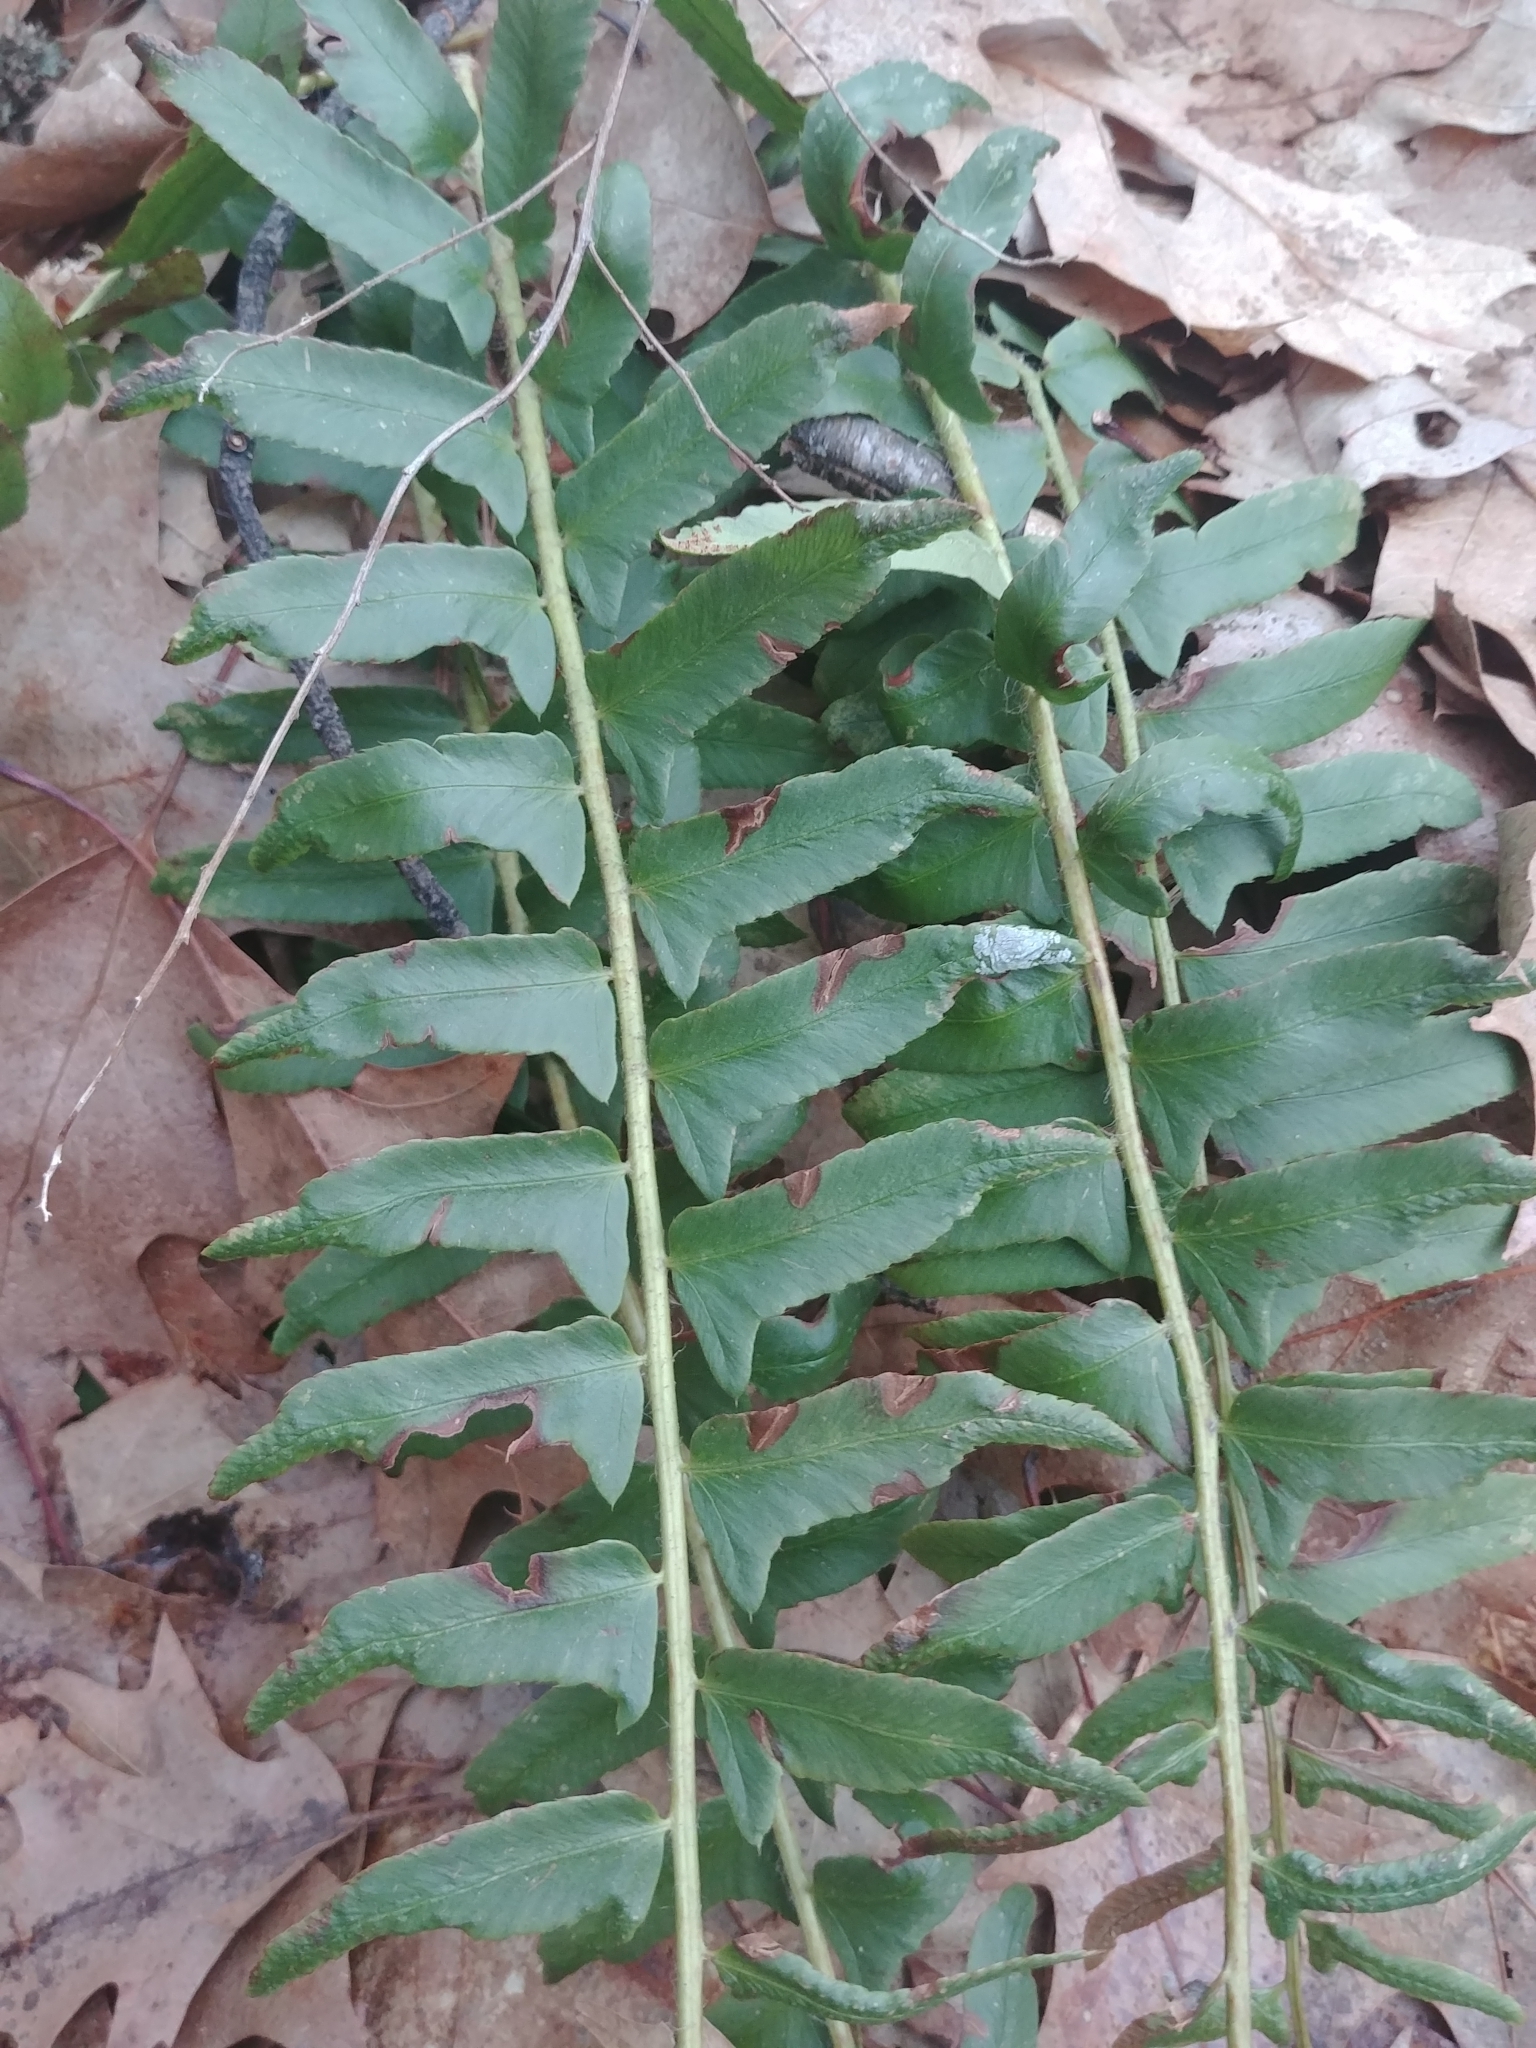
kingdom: Plantae
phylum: Tracheophyta
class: Polypodiopsida
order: Polypodiales
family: Dryopteridaceae
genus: Polystichum
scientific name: Polystichum acrostichoides
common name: Christmas fern
